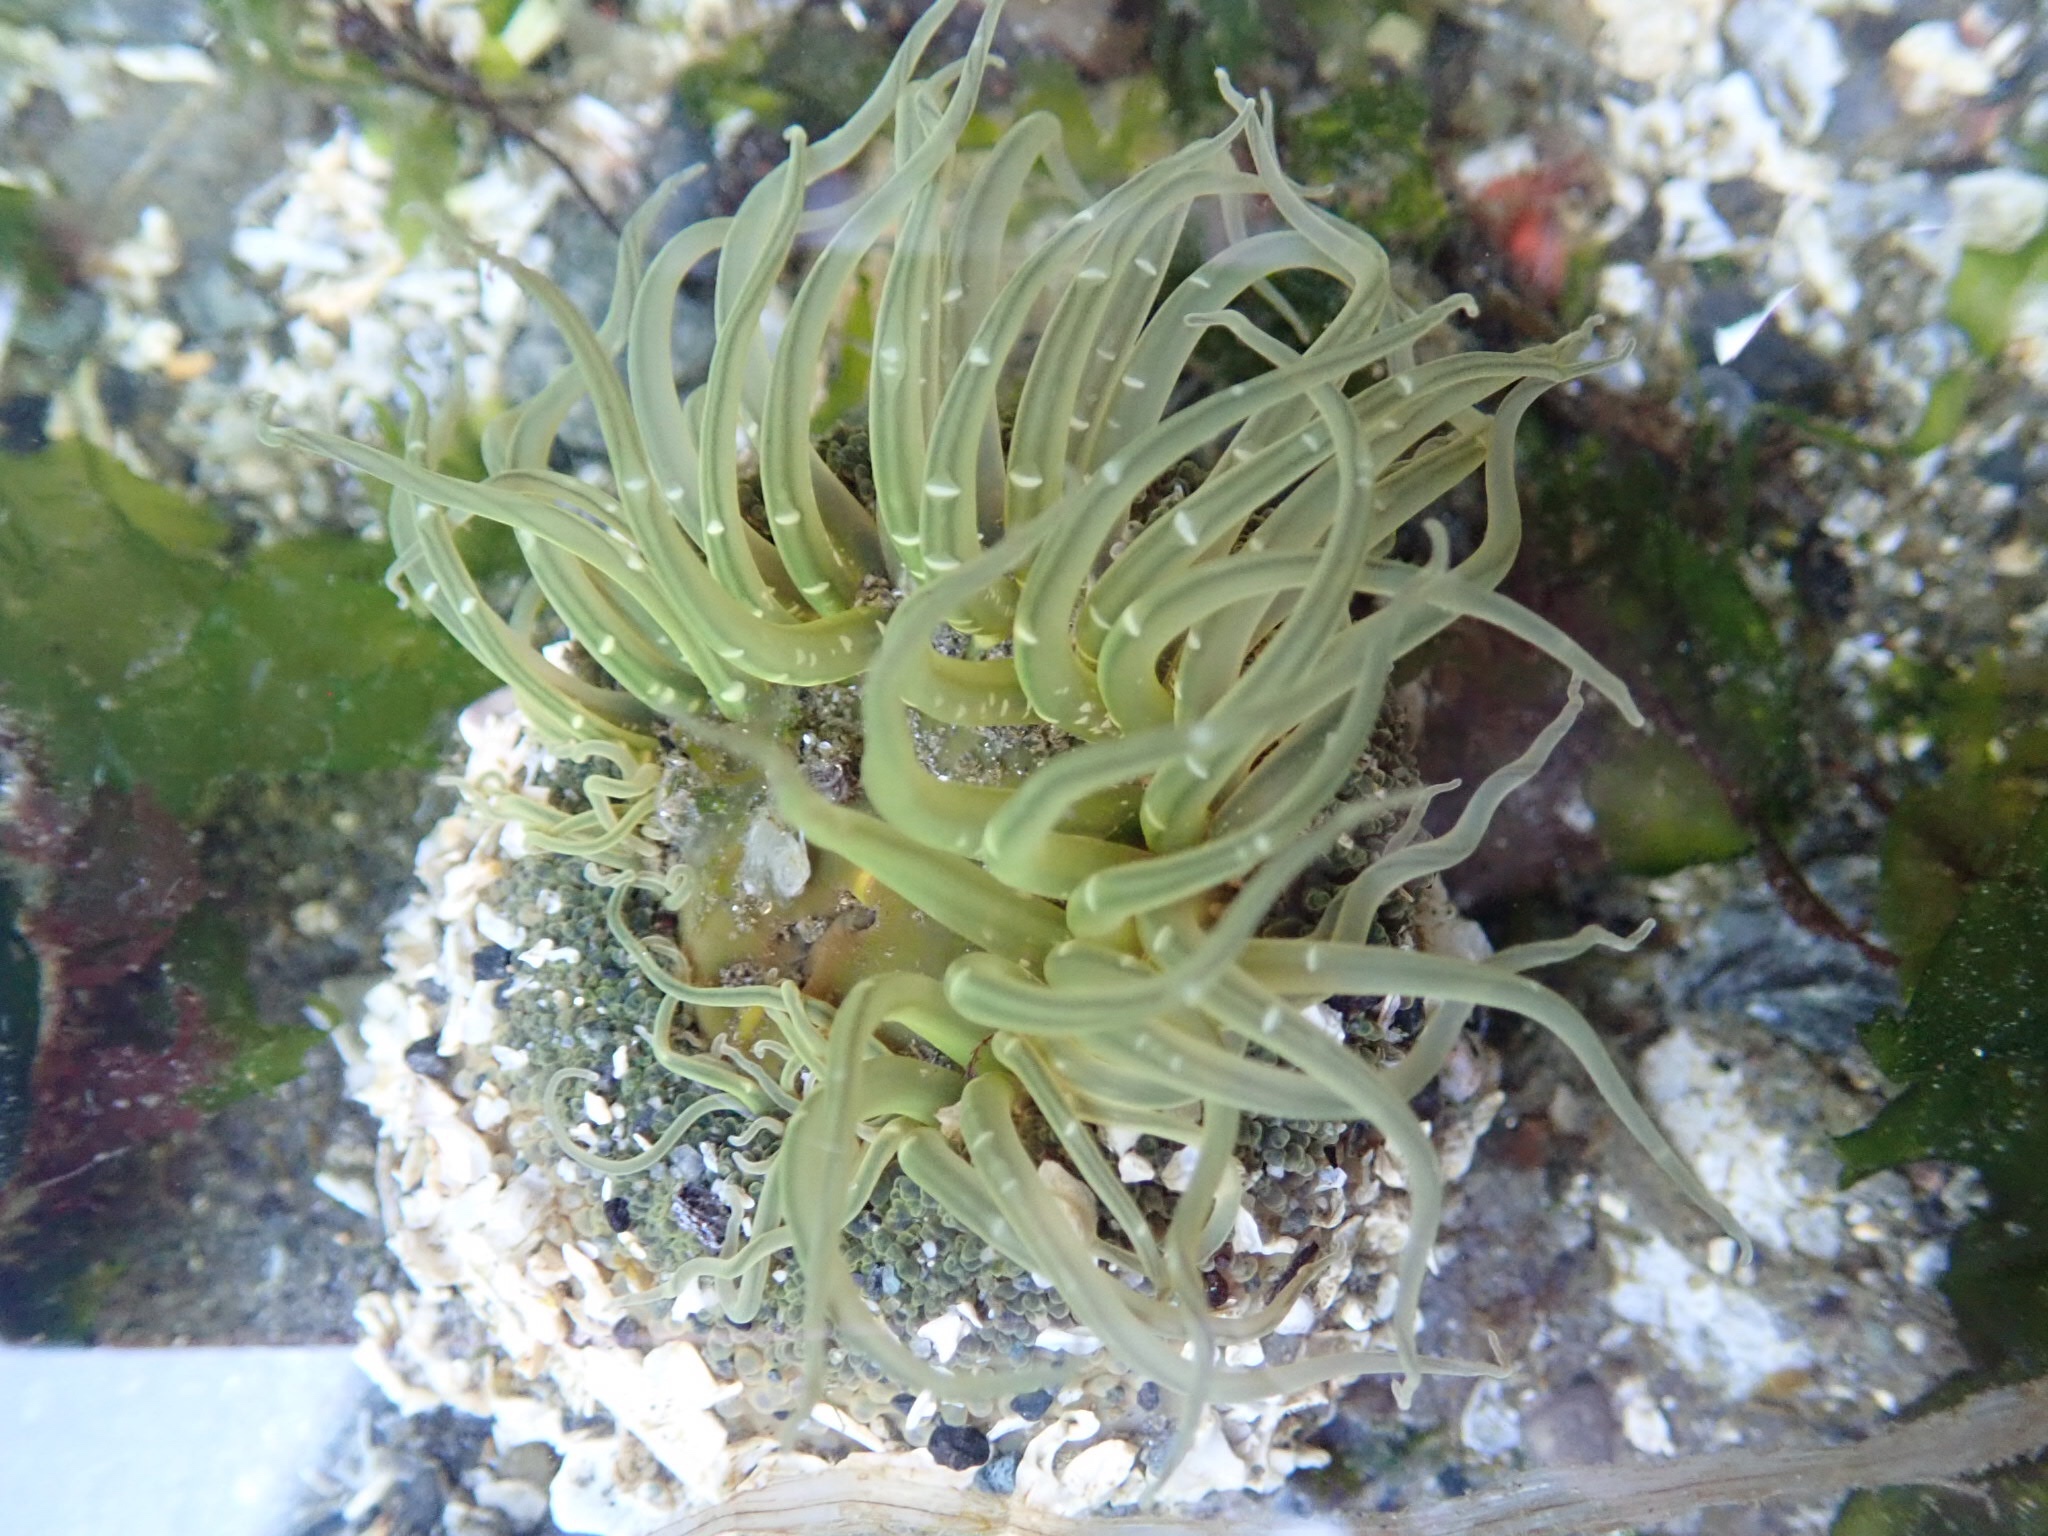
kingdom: Animalia
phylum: Cnidaria
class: Anthozoa
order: Actiniaria
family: Actiniidae
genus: Anthopleura
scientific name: Anthopleura artemisia
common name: Buried sea anemone
